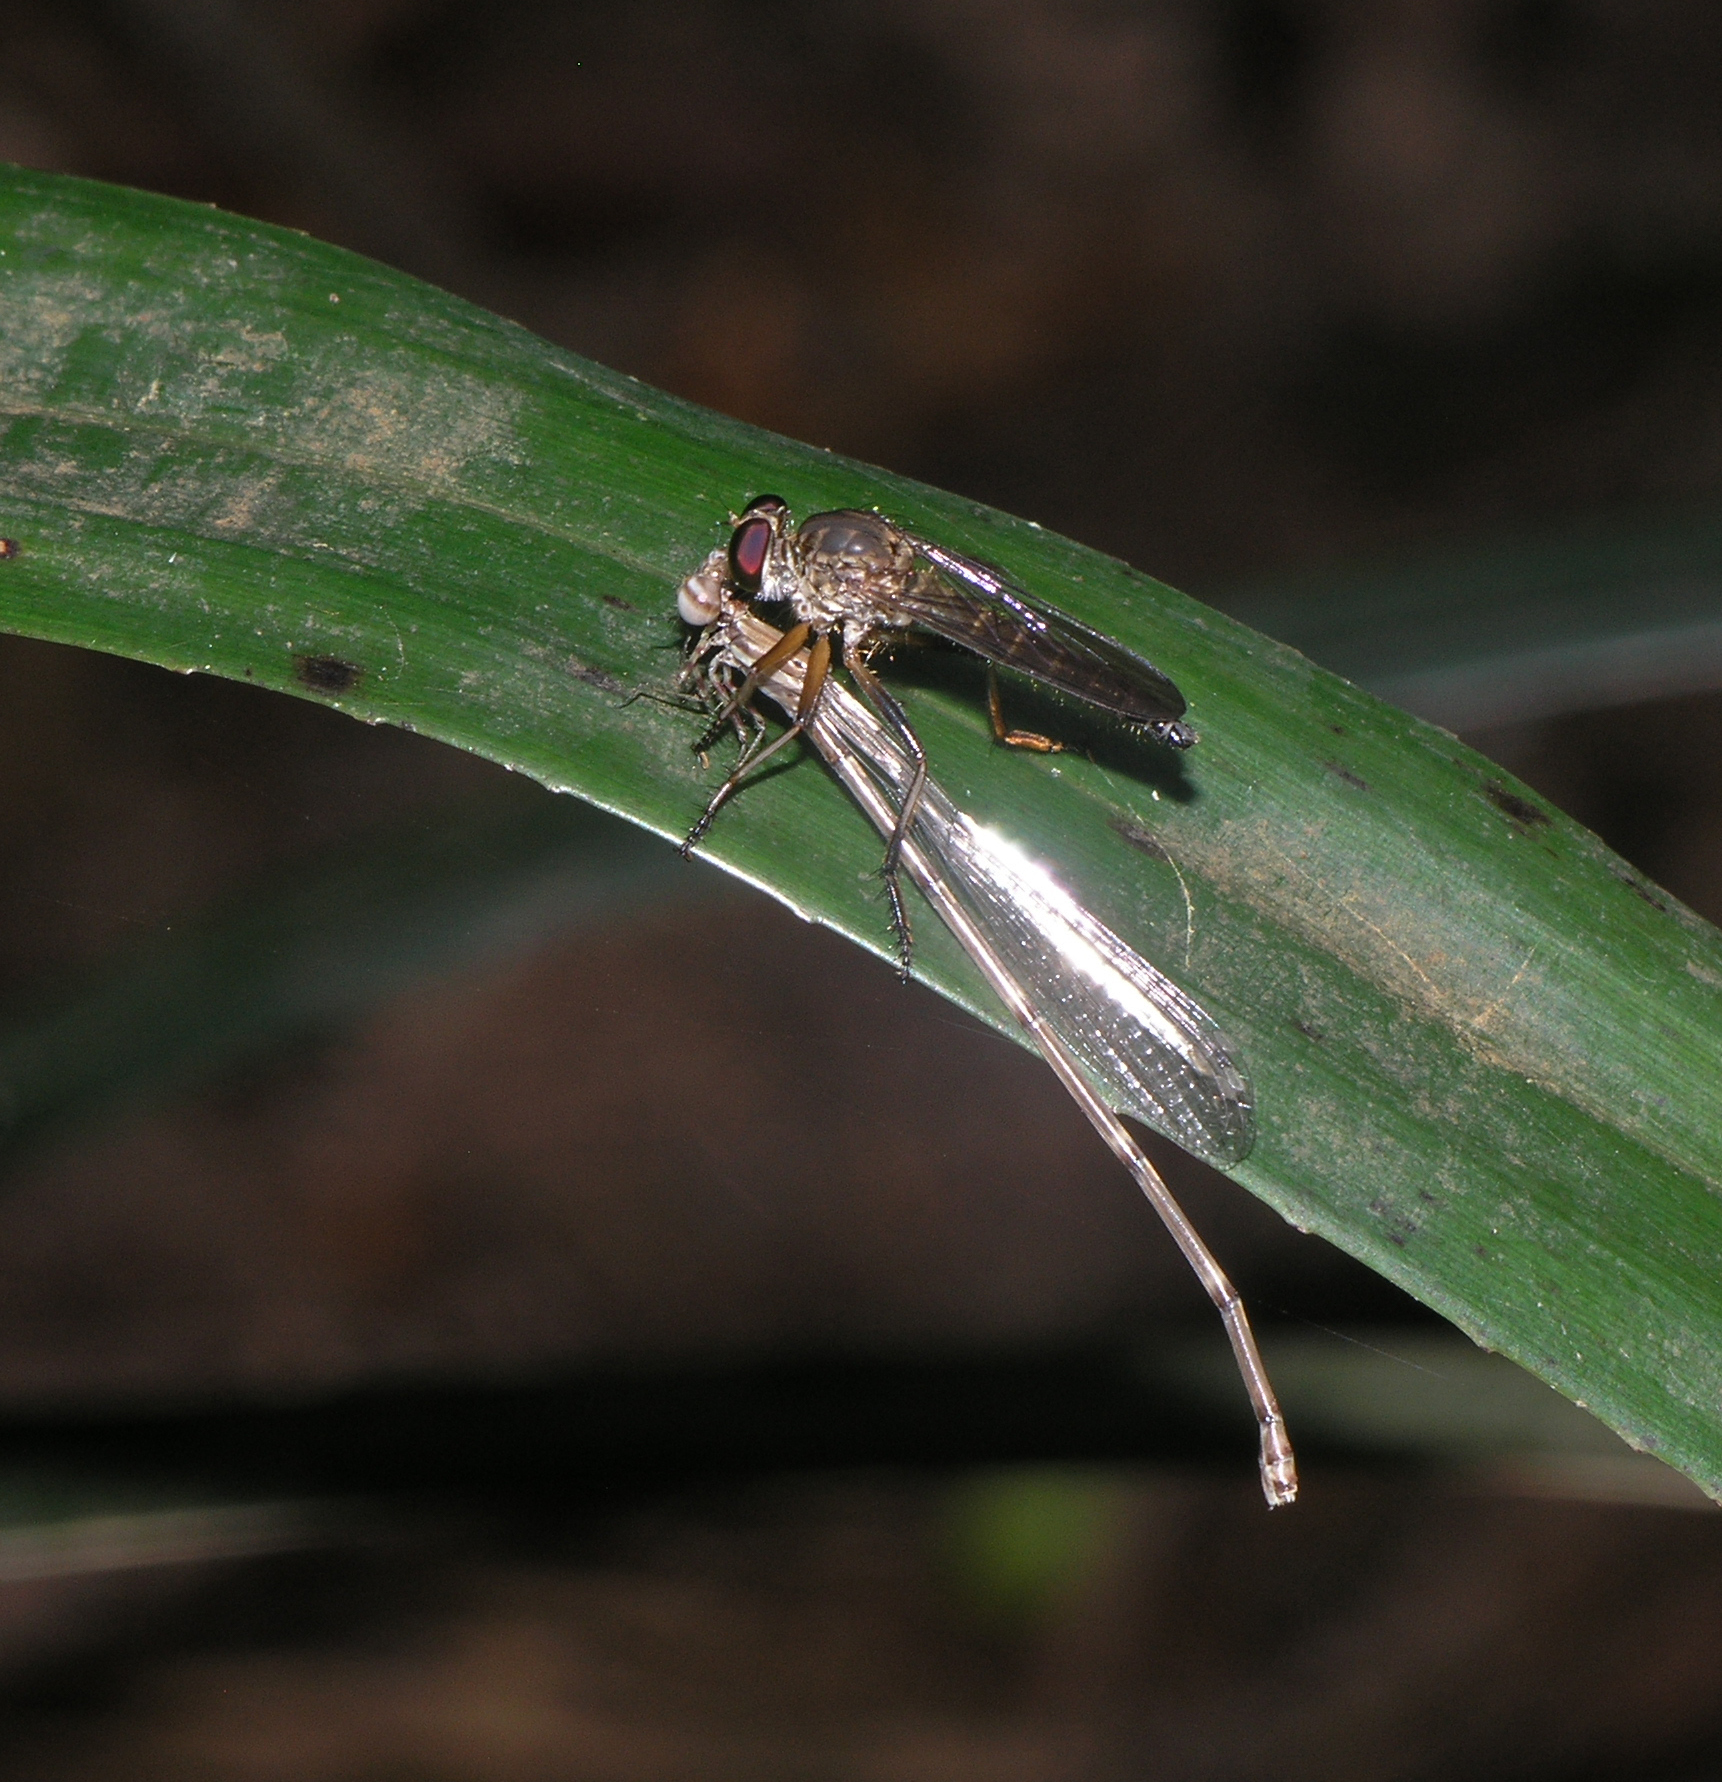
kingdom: Animalia
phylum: Arthropoda
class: Insecta
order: Odonata
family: Platycnemididae
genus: Copera
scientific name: Copera vittata
